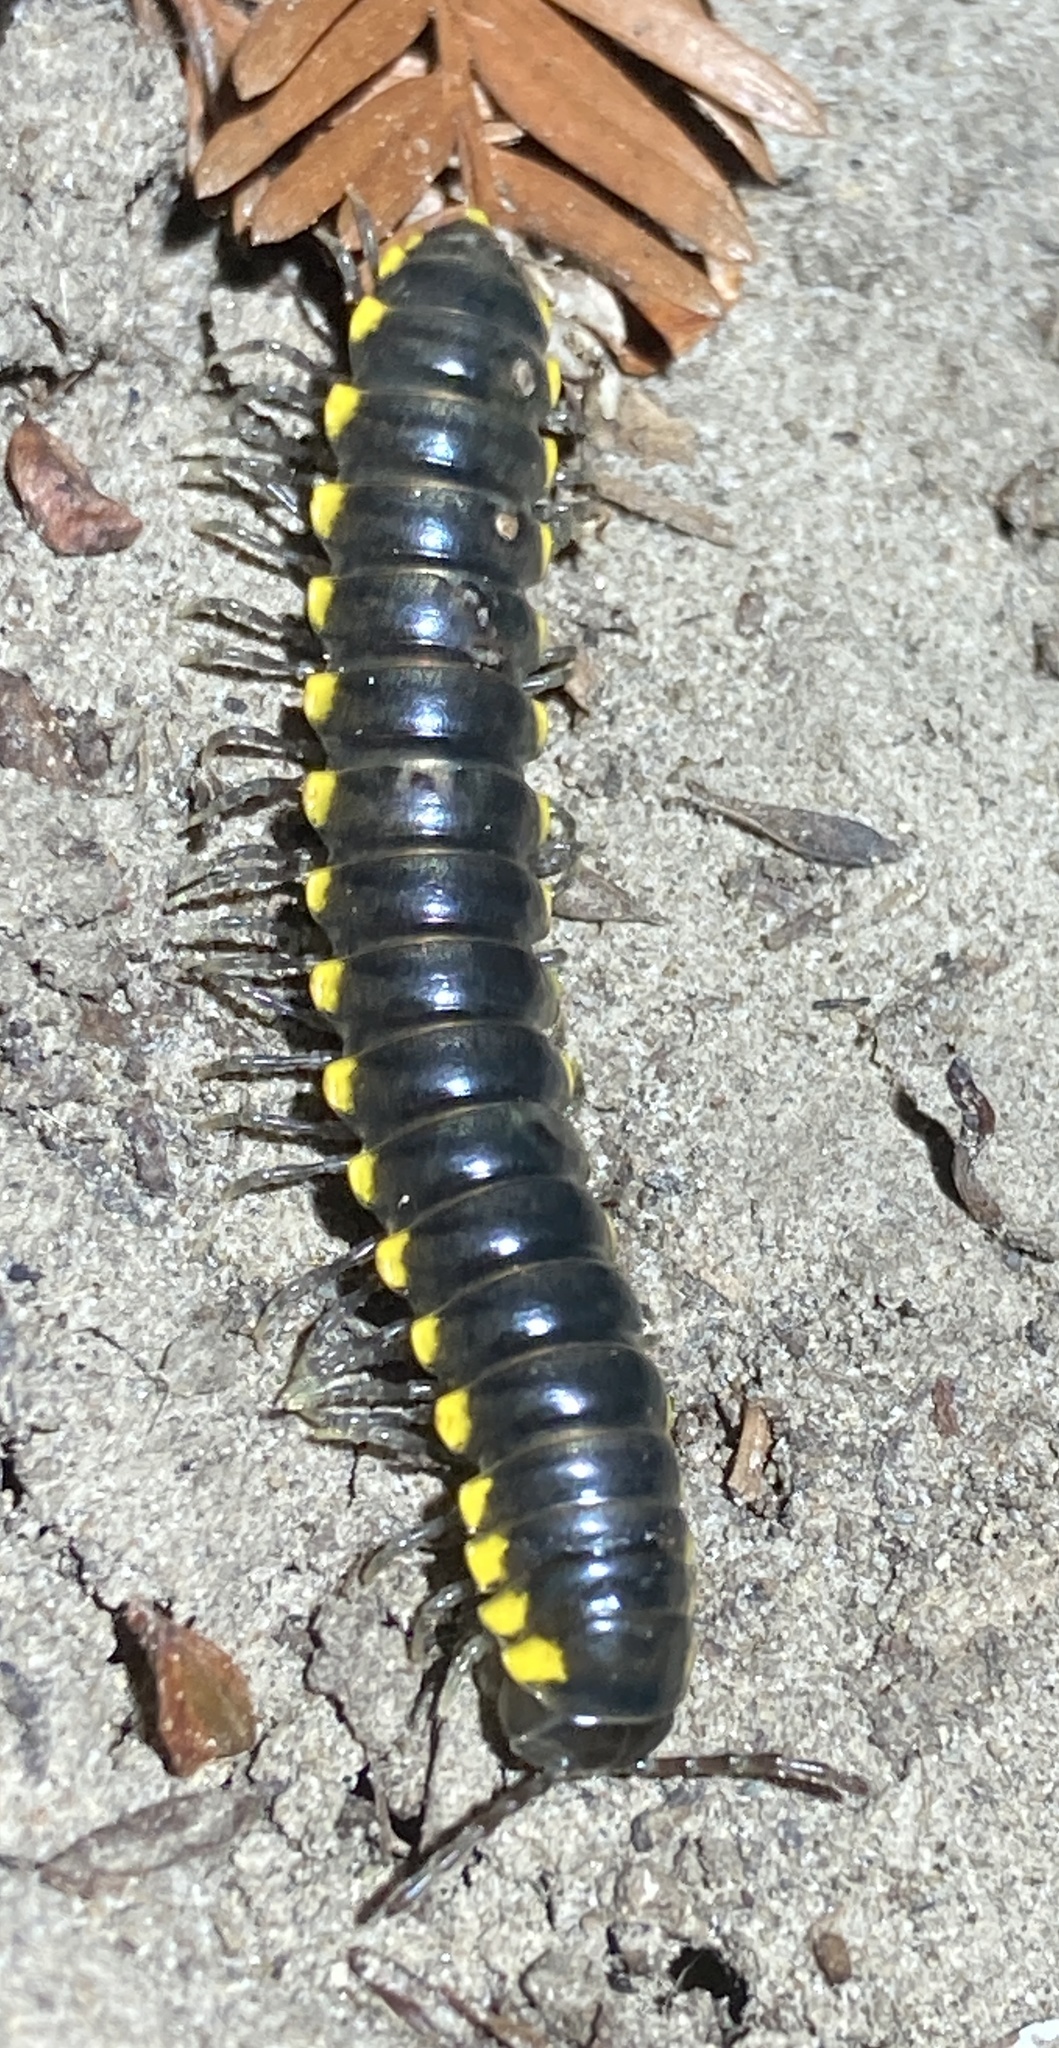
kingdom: Animalia
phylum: Arthropoda
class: Diplopoda
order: Polydesmida
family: Xystodesmidae
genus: Harpaphe
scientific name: Harpaphe haydeniana
